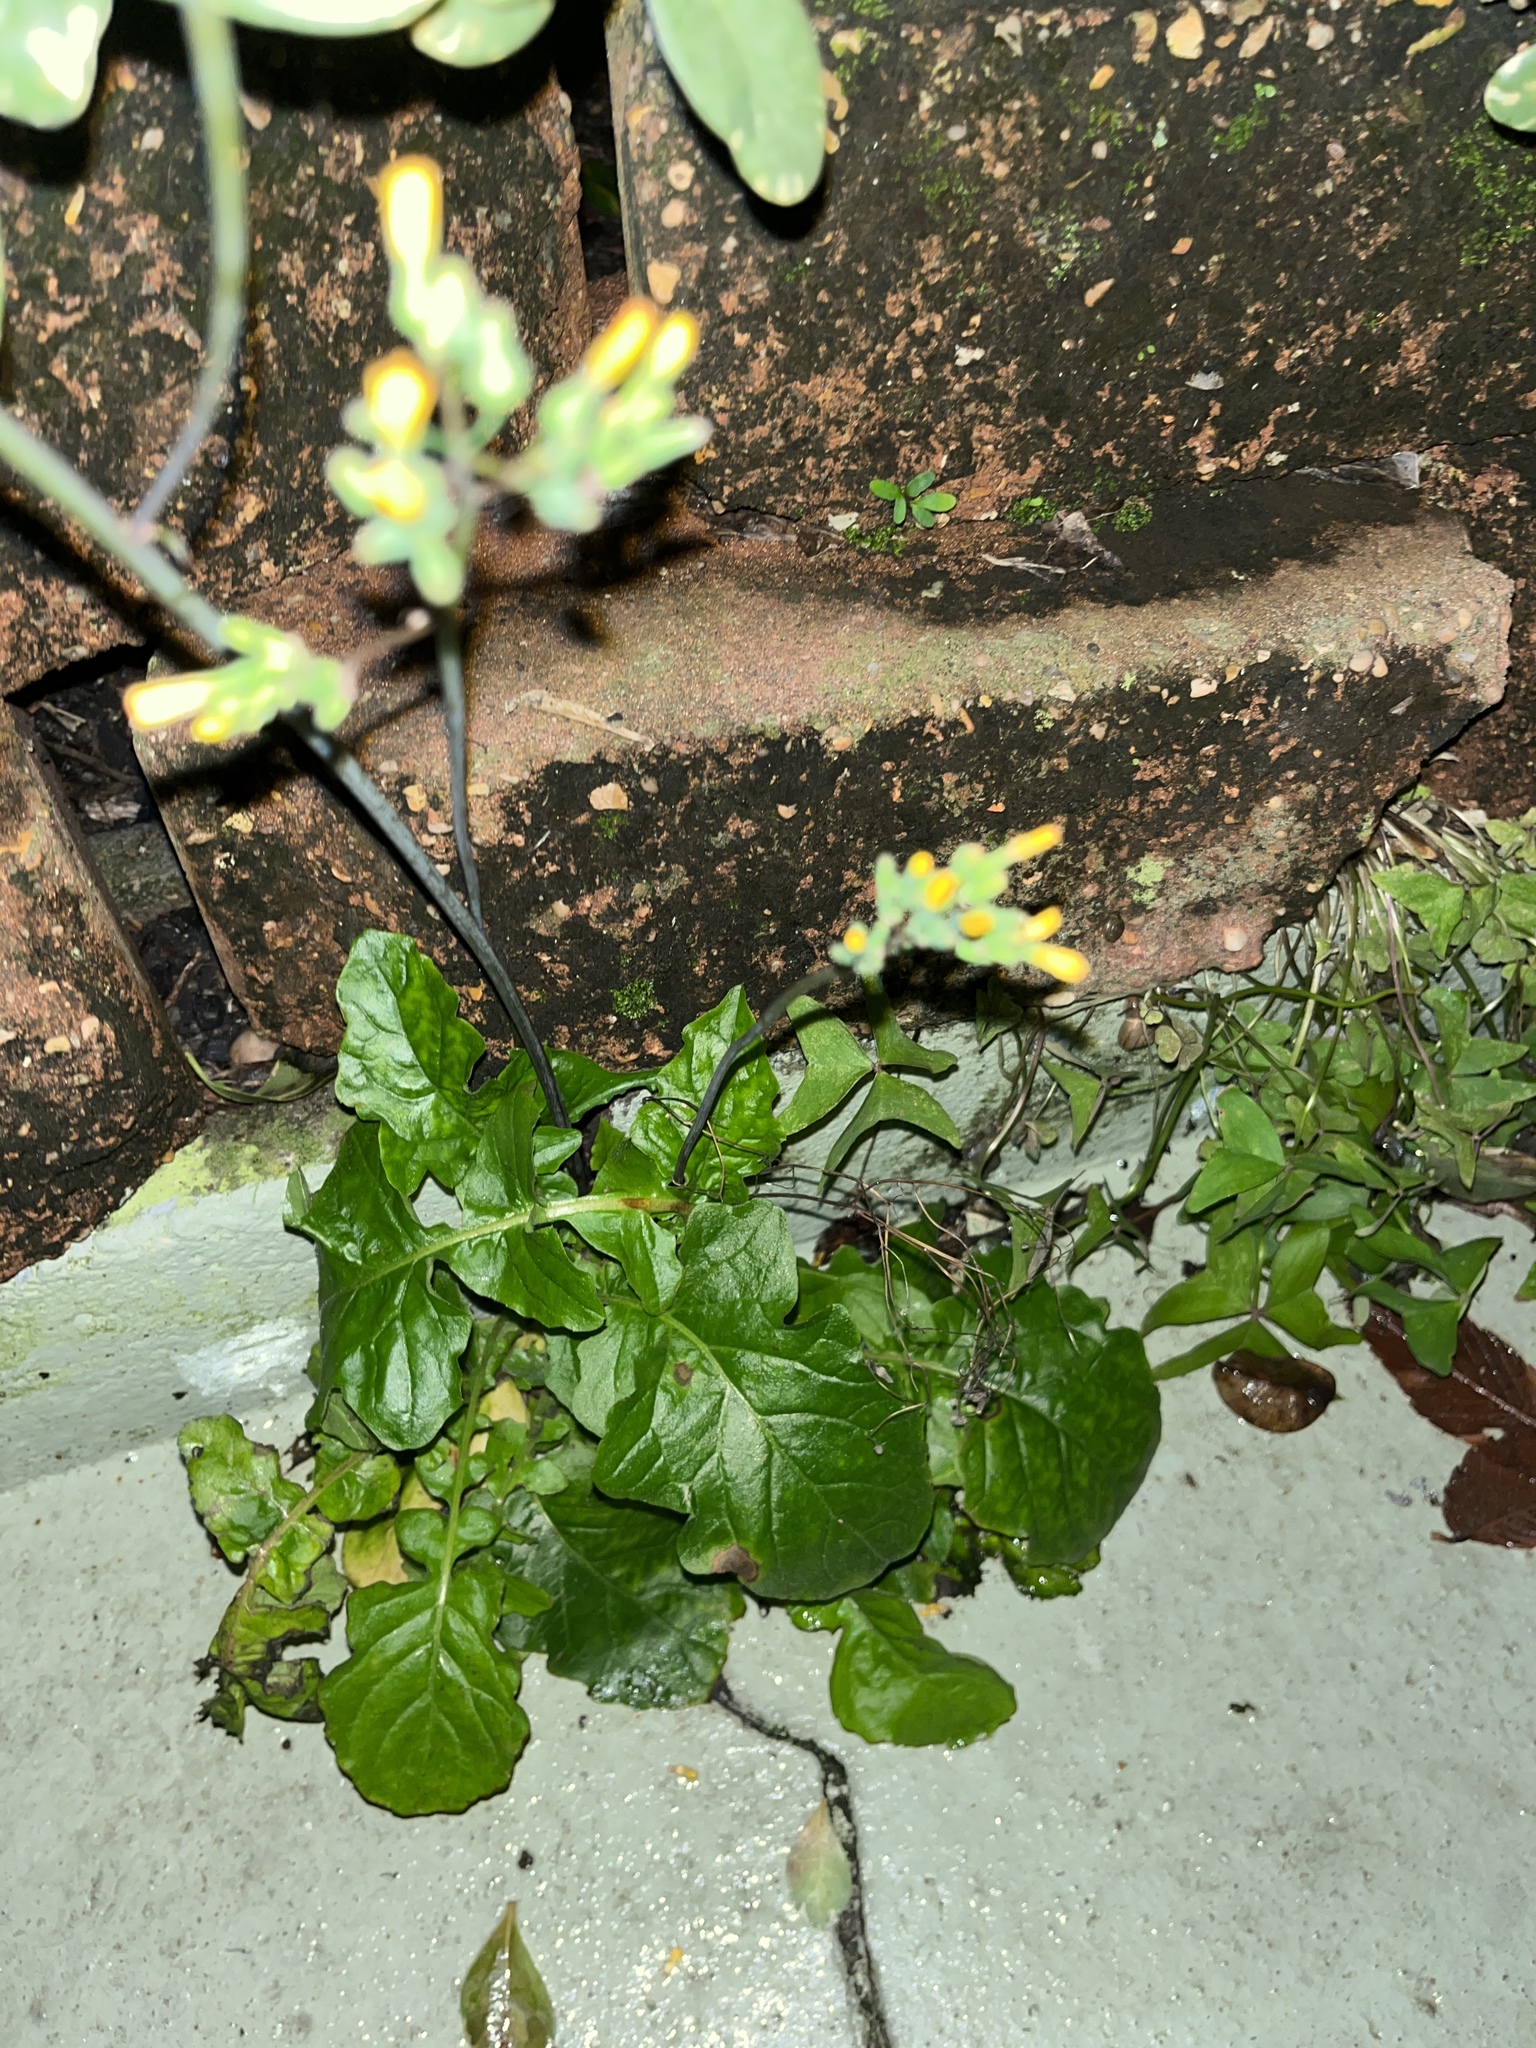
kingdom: Plantae
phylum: Tracheophyta
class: Magnoliopsida
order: Asterales
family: Asteraceae
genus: Youngia
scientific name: Youngia japonica
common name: Oriental false hawksbeard
